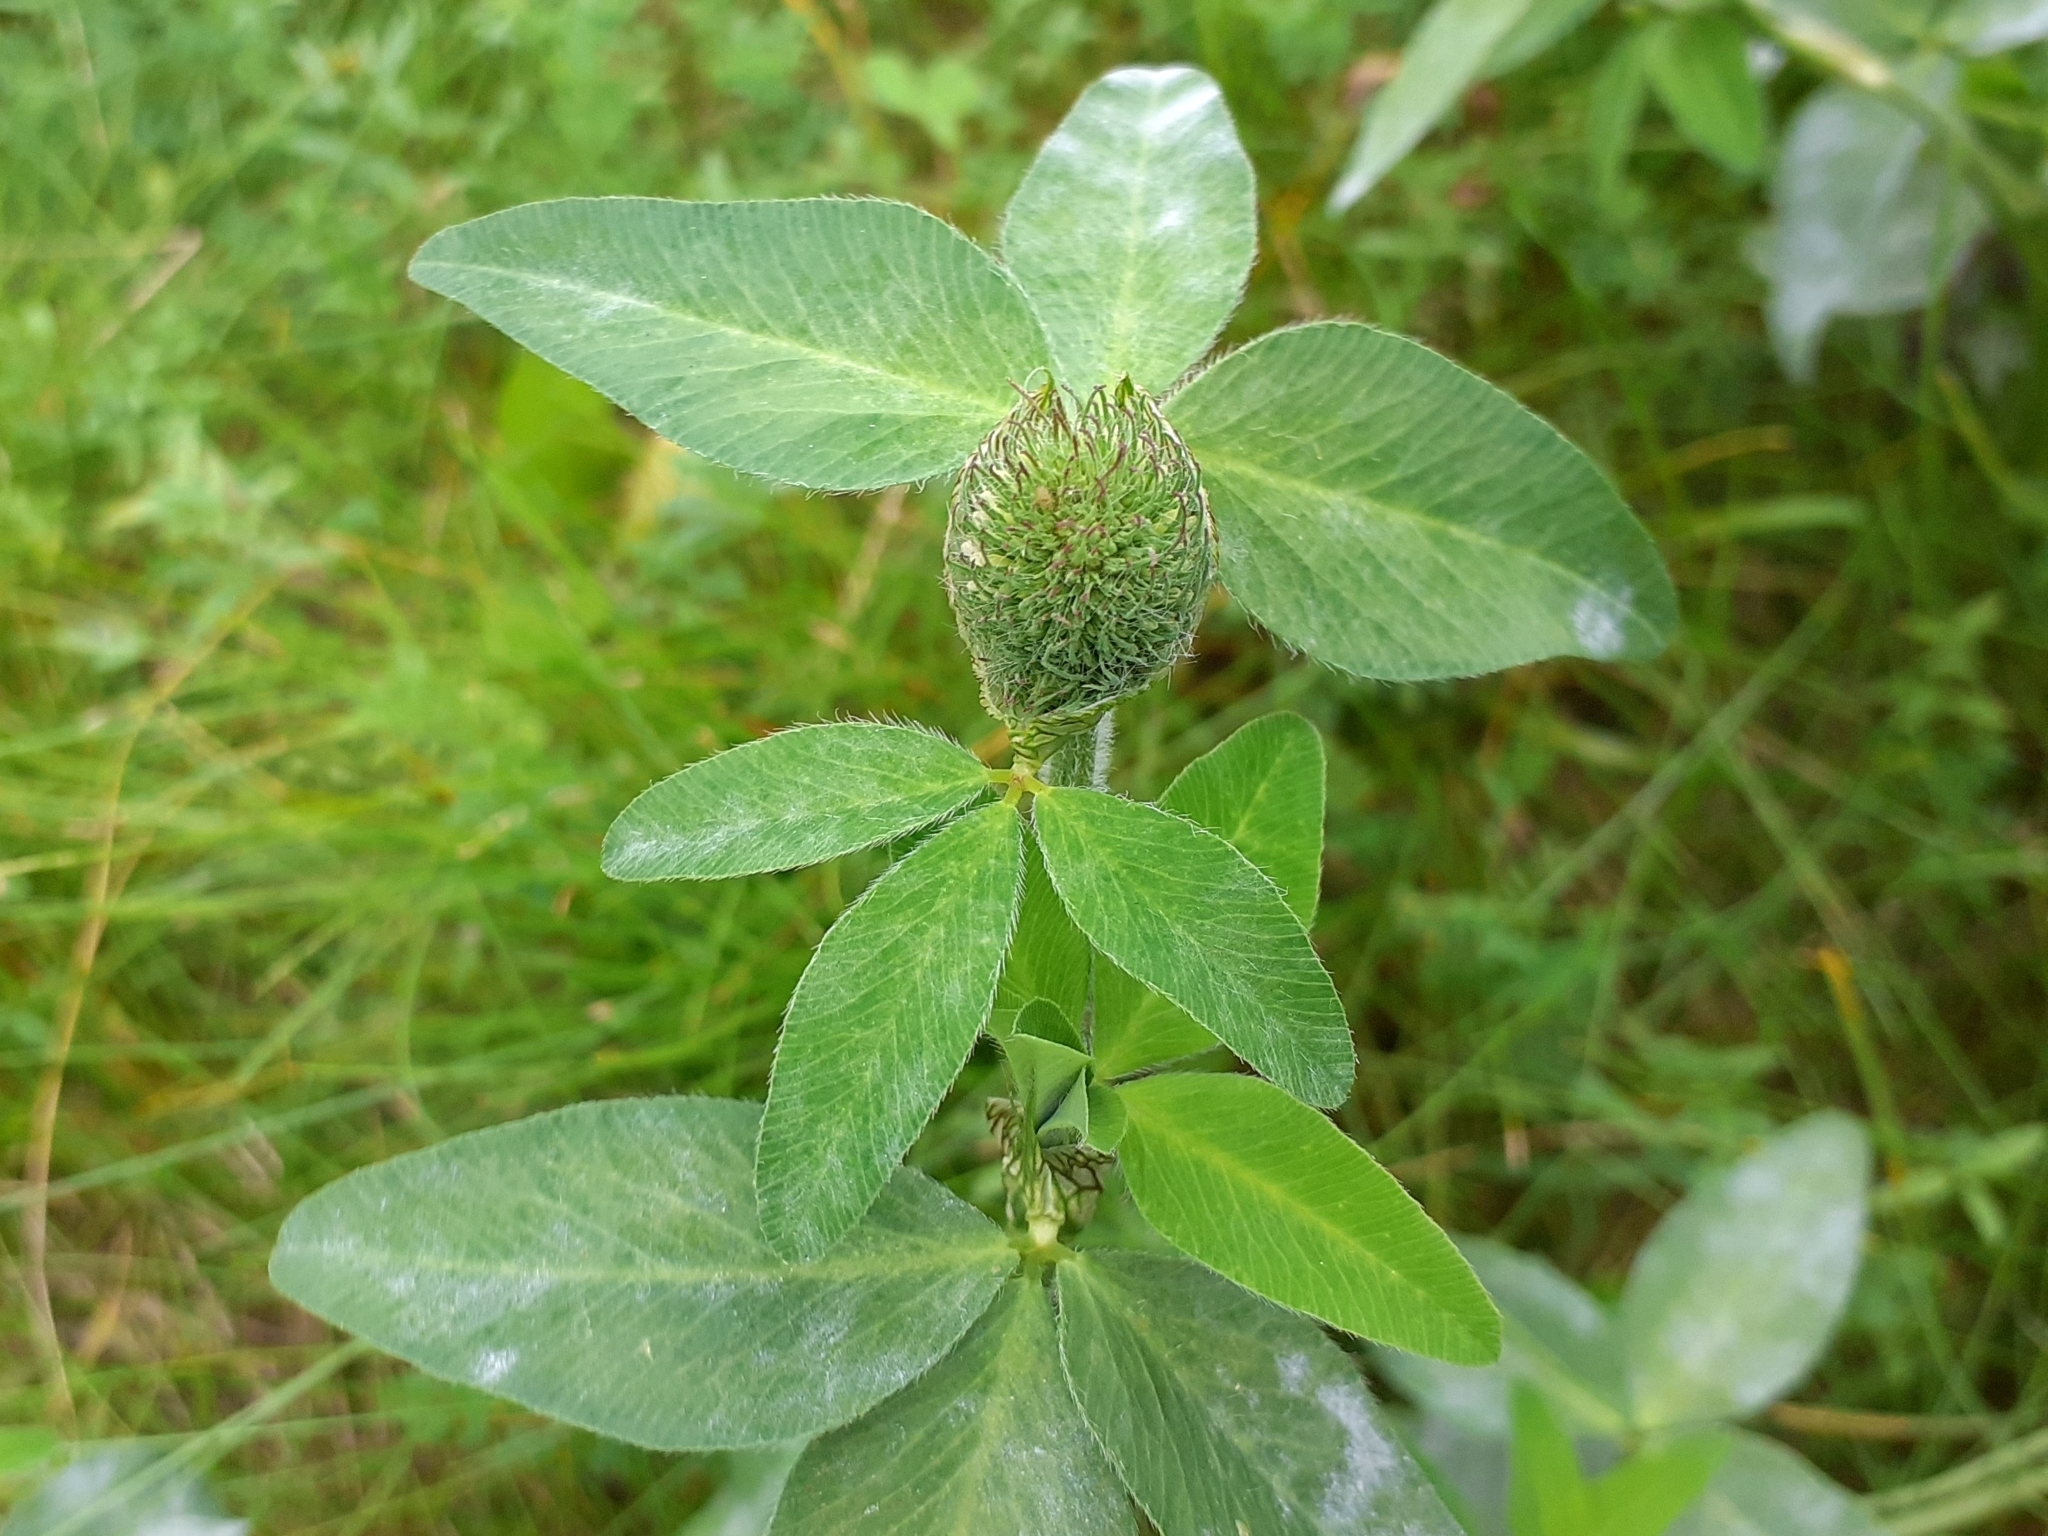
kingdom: Plantae
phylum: Tracheophyta
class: Magnoliopsida
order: Fabales
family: Fabaceae
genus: Trifolium
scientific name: Trifolium pratense
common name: Red clover
